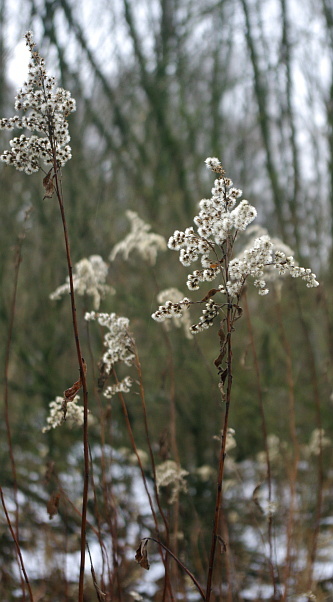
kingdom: Plantae
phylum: Tracheophyta
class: Magnoliopsida
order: Asterales
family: Asteraceae
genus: Solidago
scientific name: Solidago gigantea
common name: Giant goldenrod
